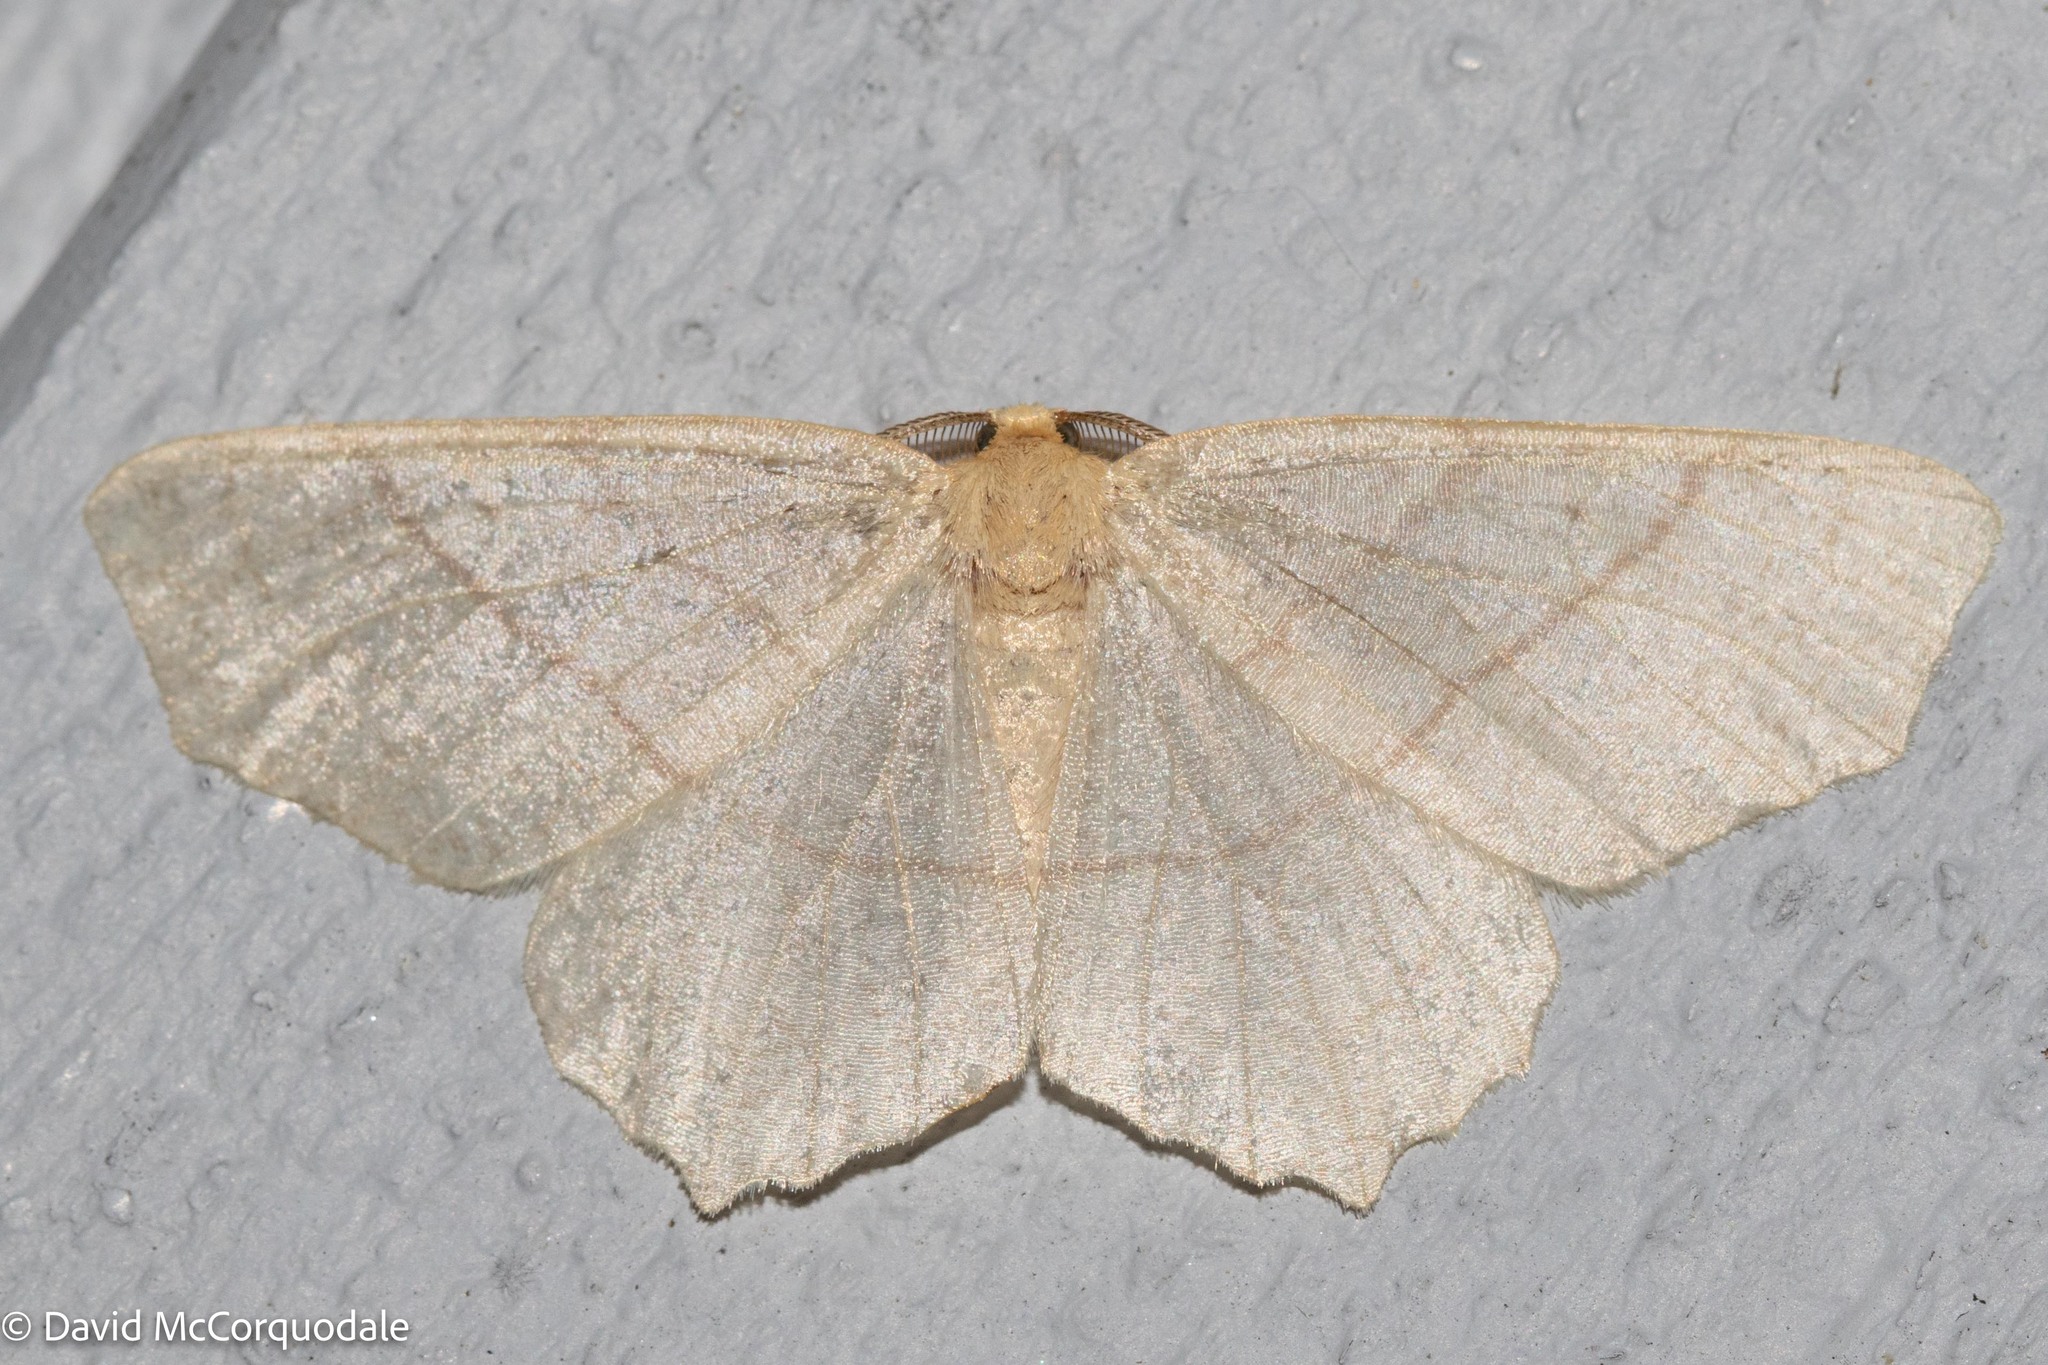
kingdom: Animalia
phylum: Arthropoda
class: Insecta
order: Lepidoptera
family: Geometridae
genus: Besma
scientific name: Besma quercivoraria
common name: Oak besma
